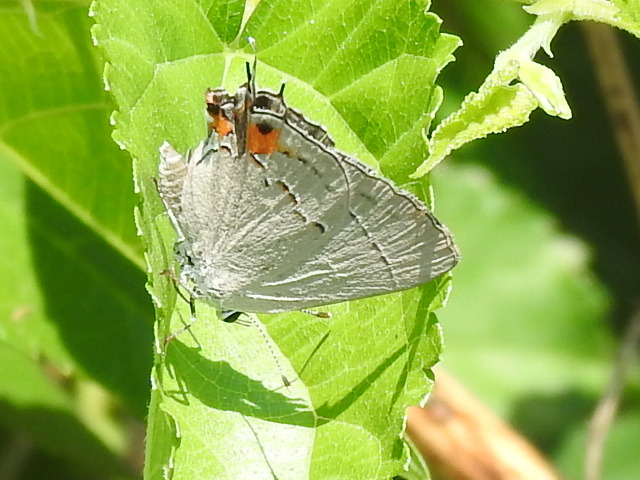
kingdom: Animalia
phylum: Arthropoda
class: Insecta
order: Lepidoptera
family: Lycaenidae
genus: Strymon
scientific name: Strymon melinus
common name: Gray hairstreak
